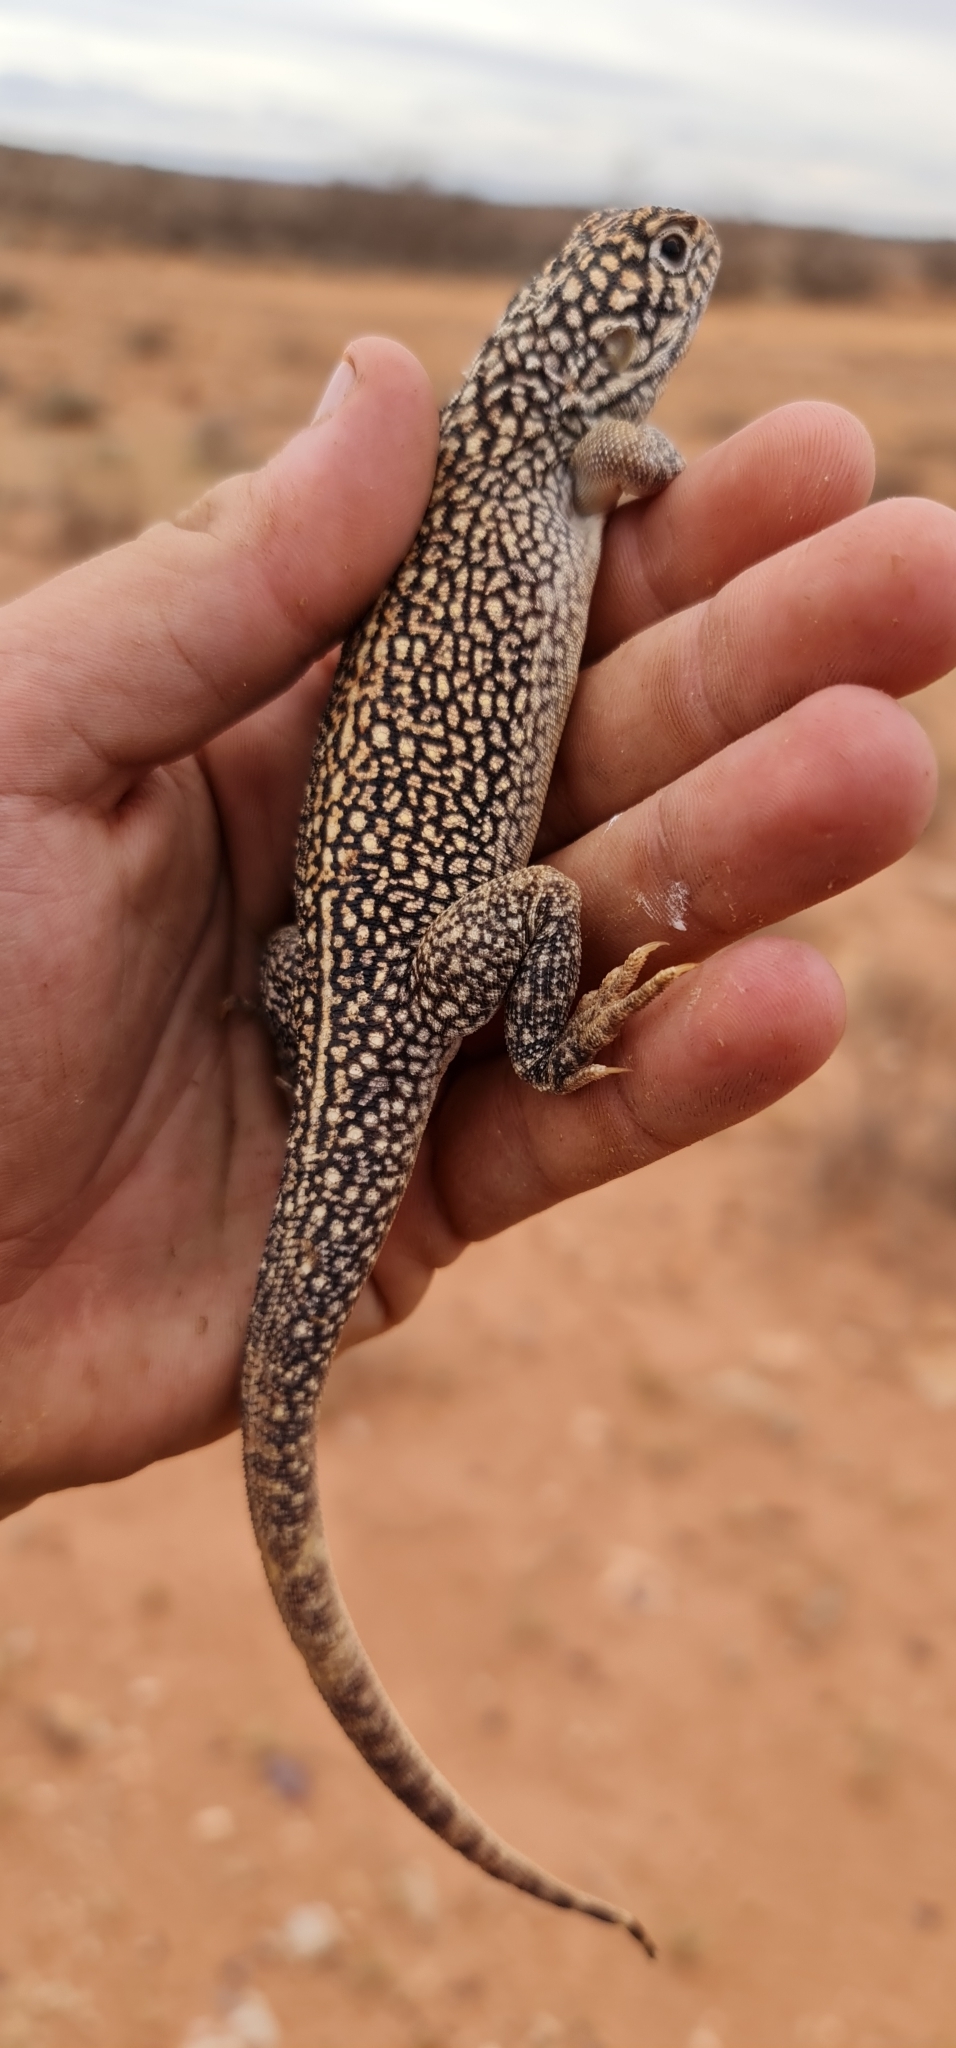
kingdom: Animalia
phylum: Chordata
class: Squamata
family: Agamidae
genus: Ctenophorus
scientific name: Ctenophorus nuchalis
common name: Central netted dragon
